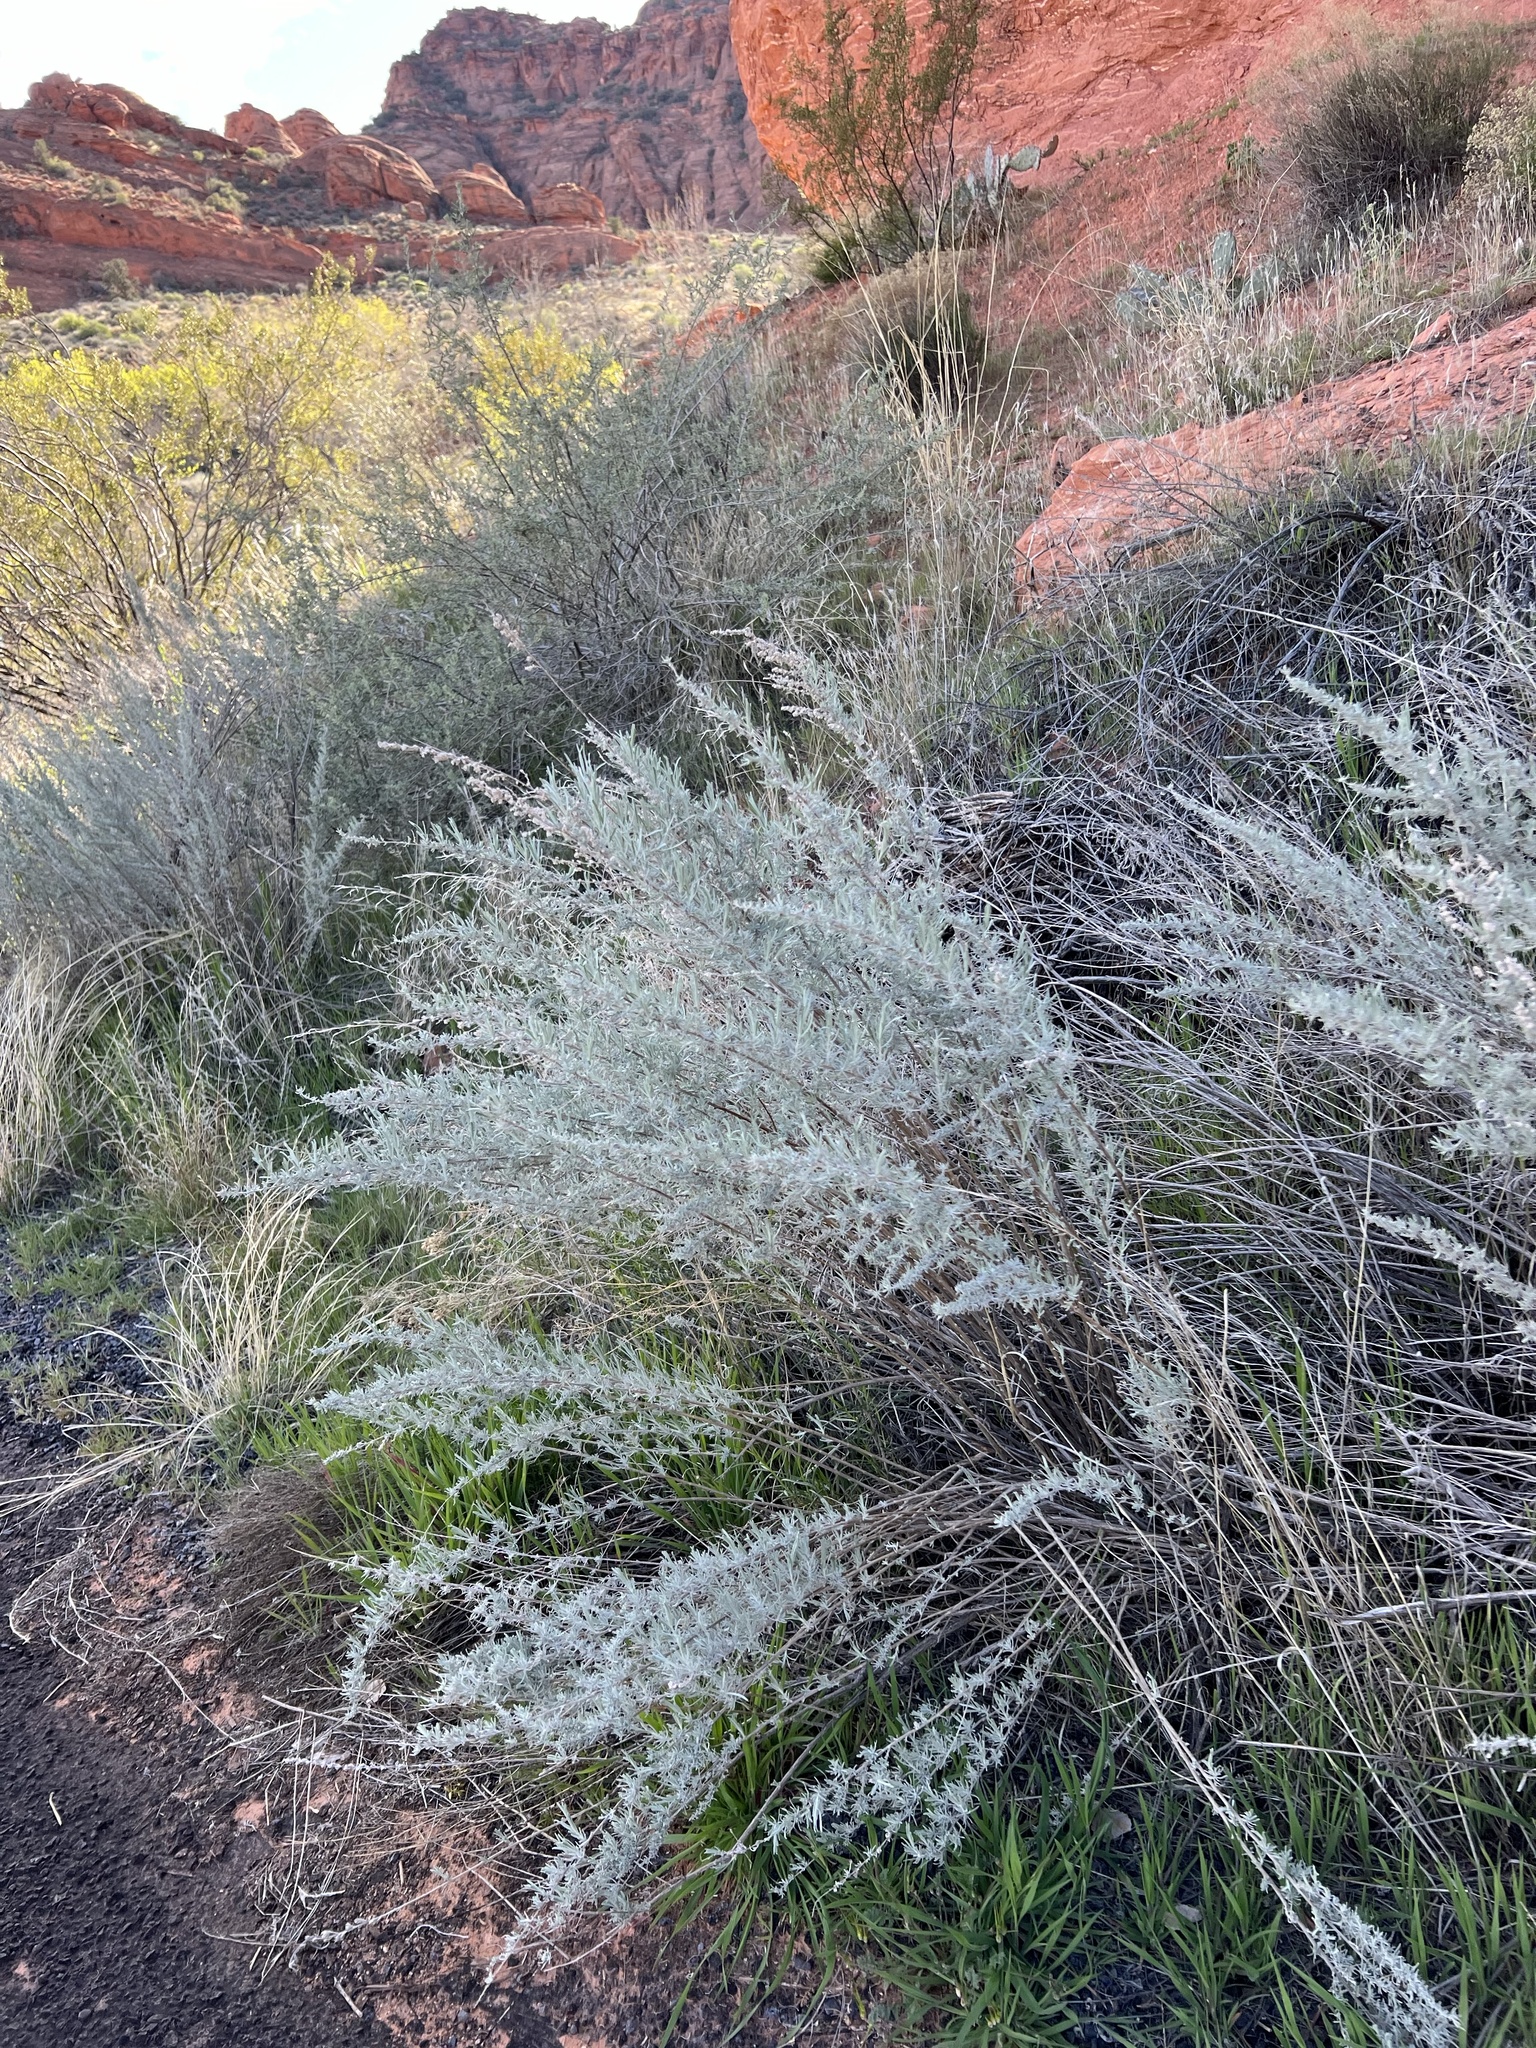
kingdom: Plantae
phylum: Tracheophyta
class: Magnoliopsida
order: Asterales
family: Asteraceae
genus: Artemisia
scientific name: Artemisia filifolia
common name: Sand-sage
